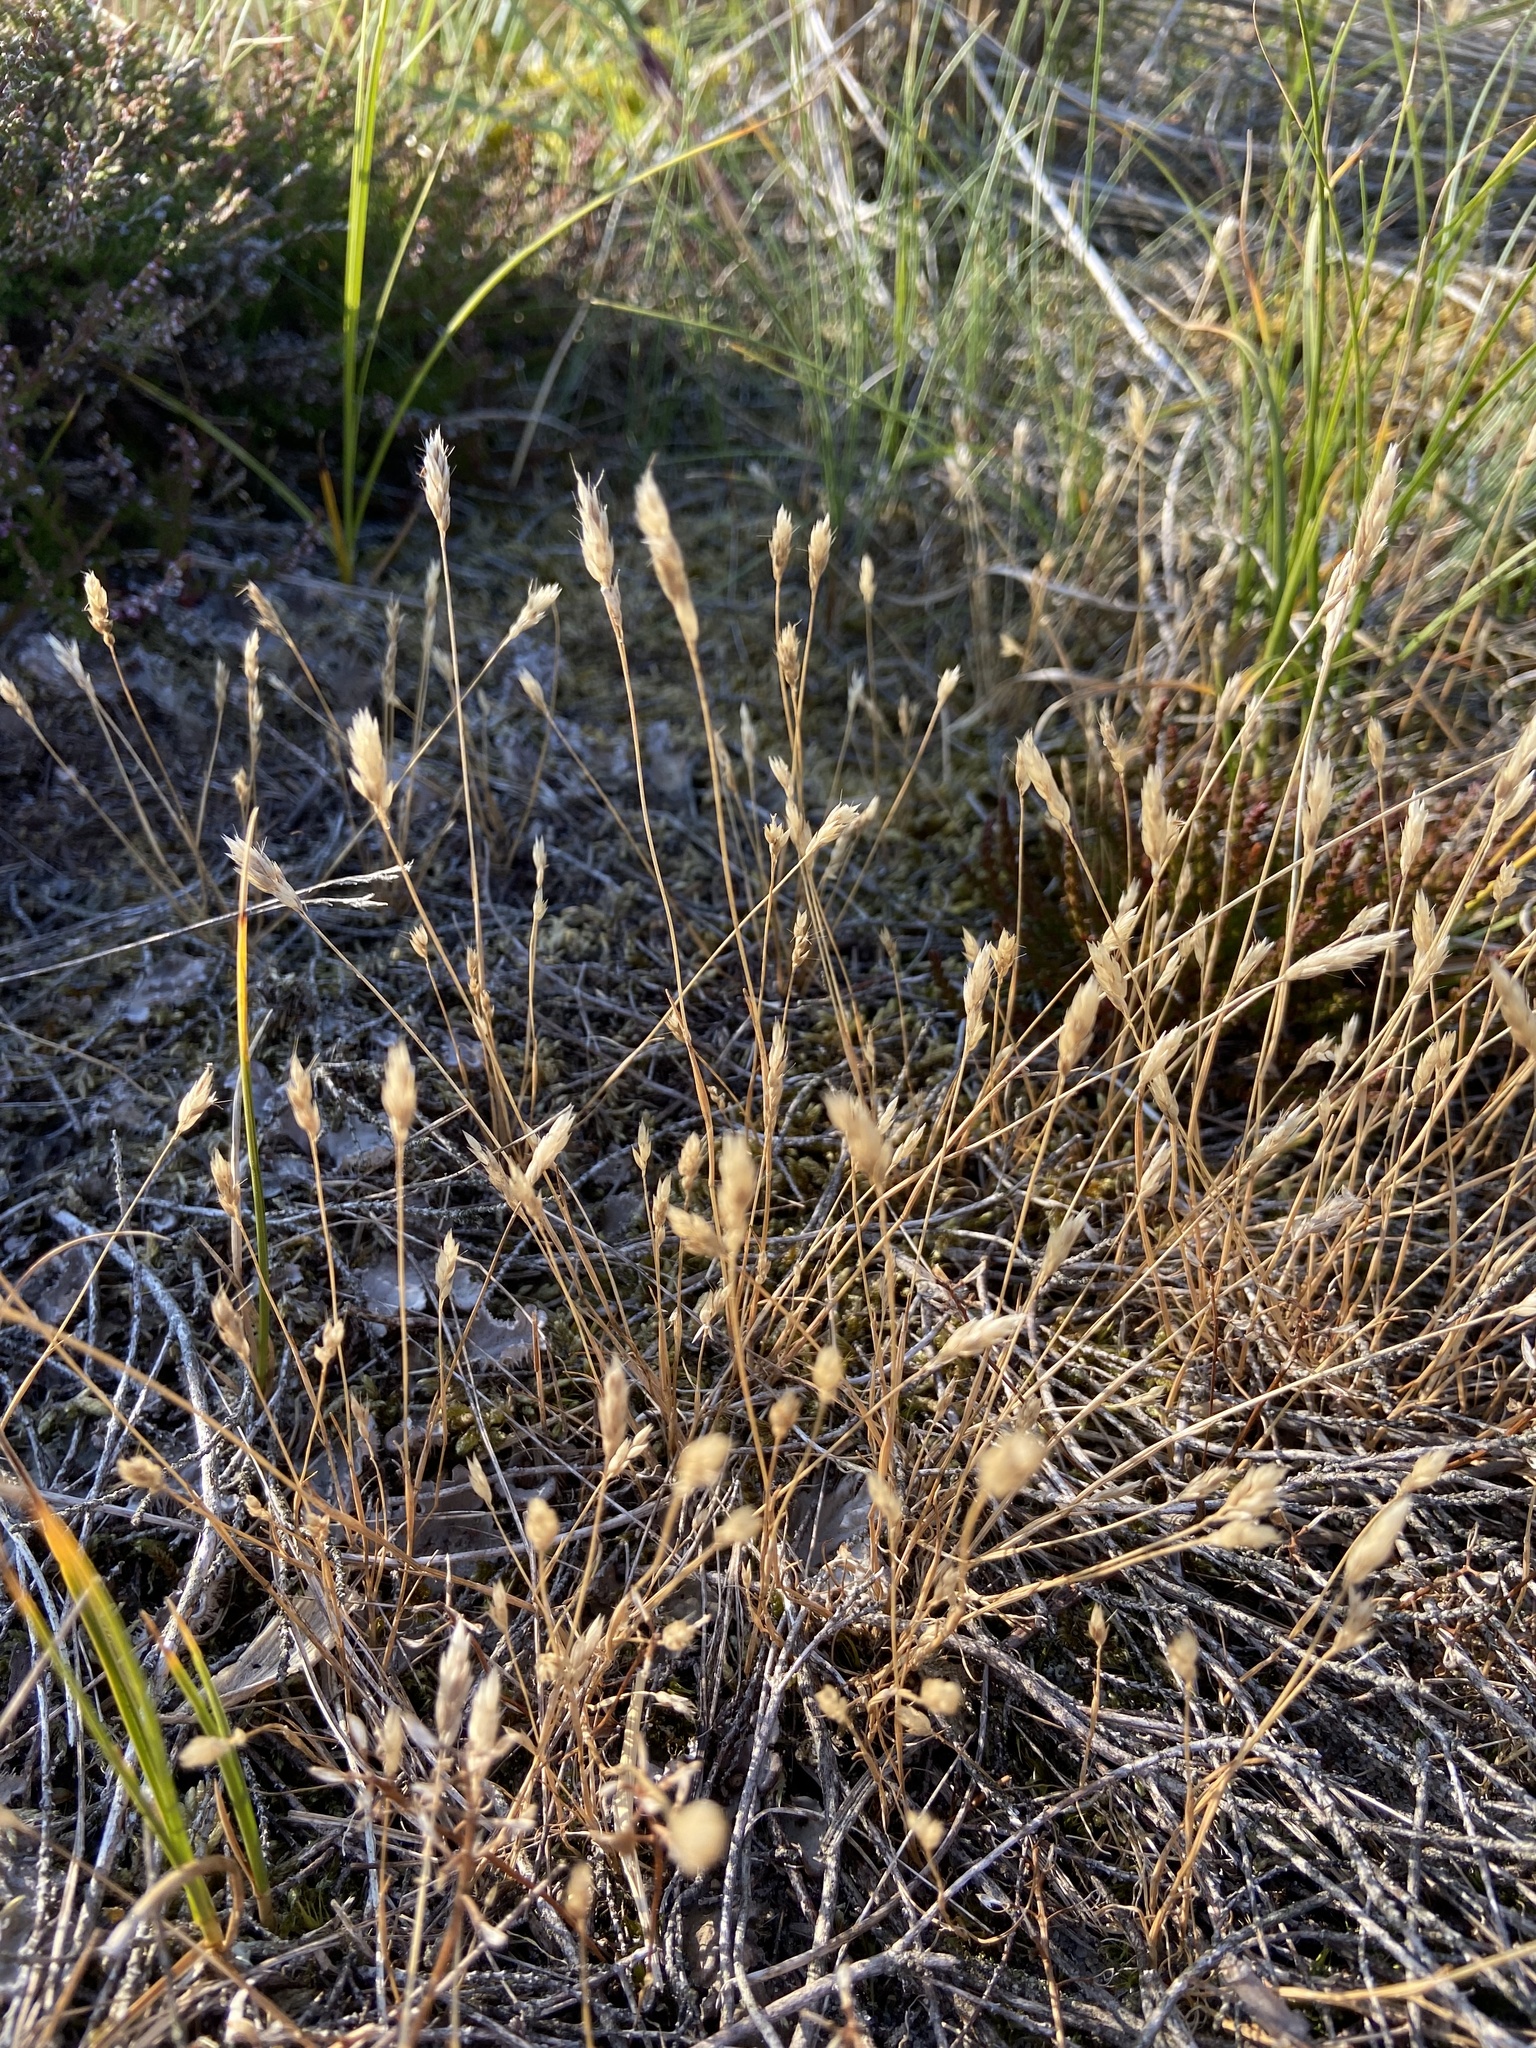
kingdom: Plantae
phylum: Tracheophyta
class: Liliopsida
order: Poales
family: Poaceae
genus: Aira
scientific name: Aira praecox
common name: Early hair-grass
